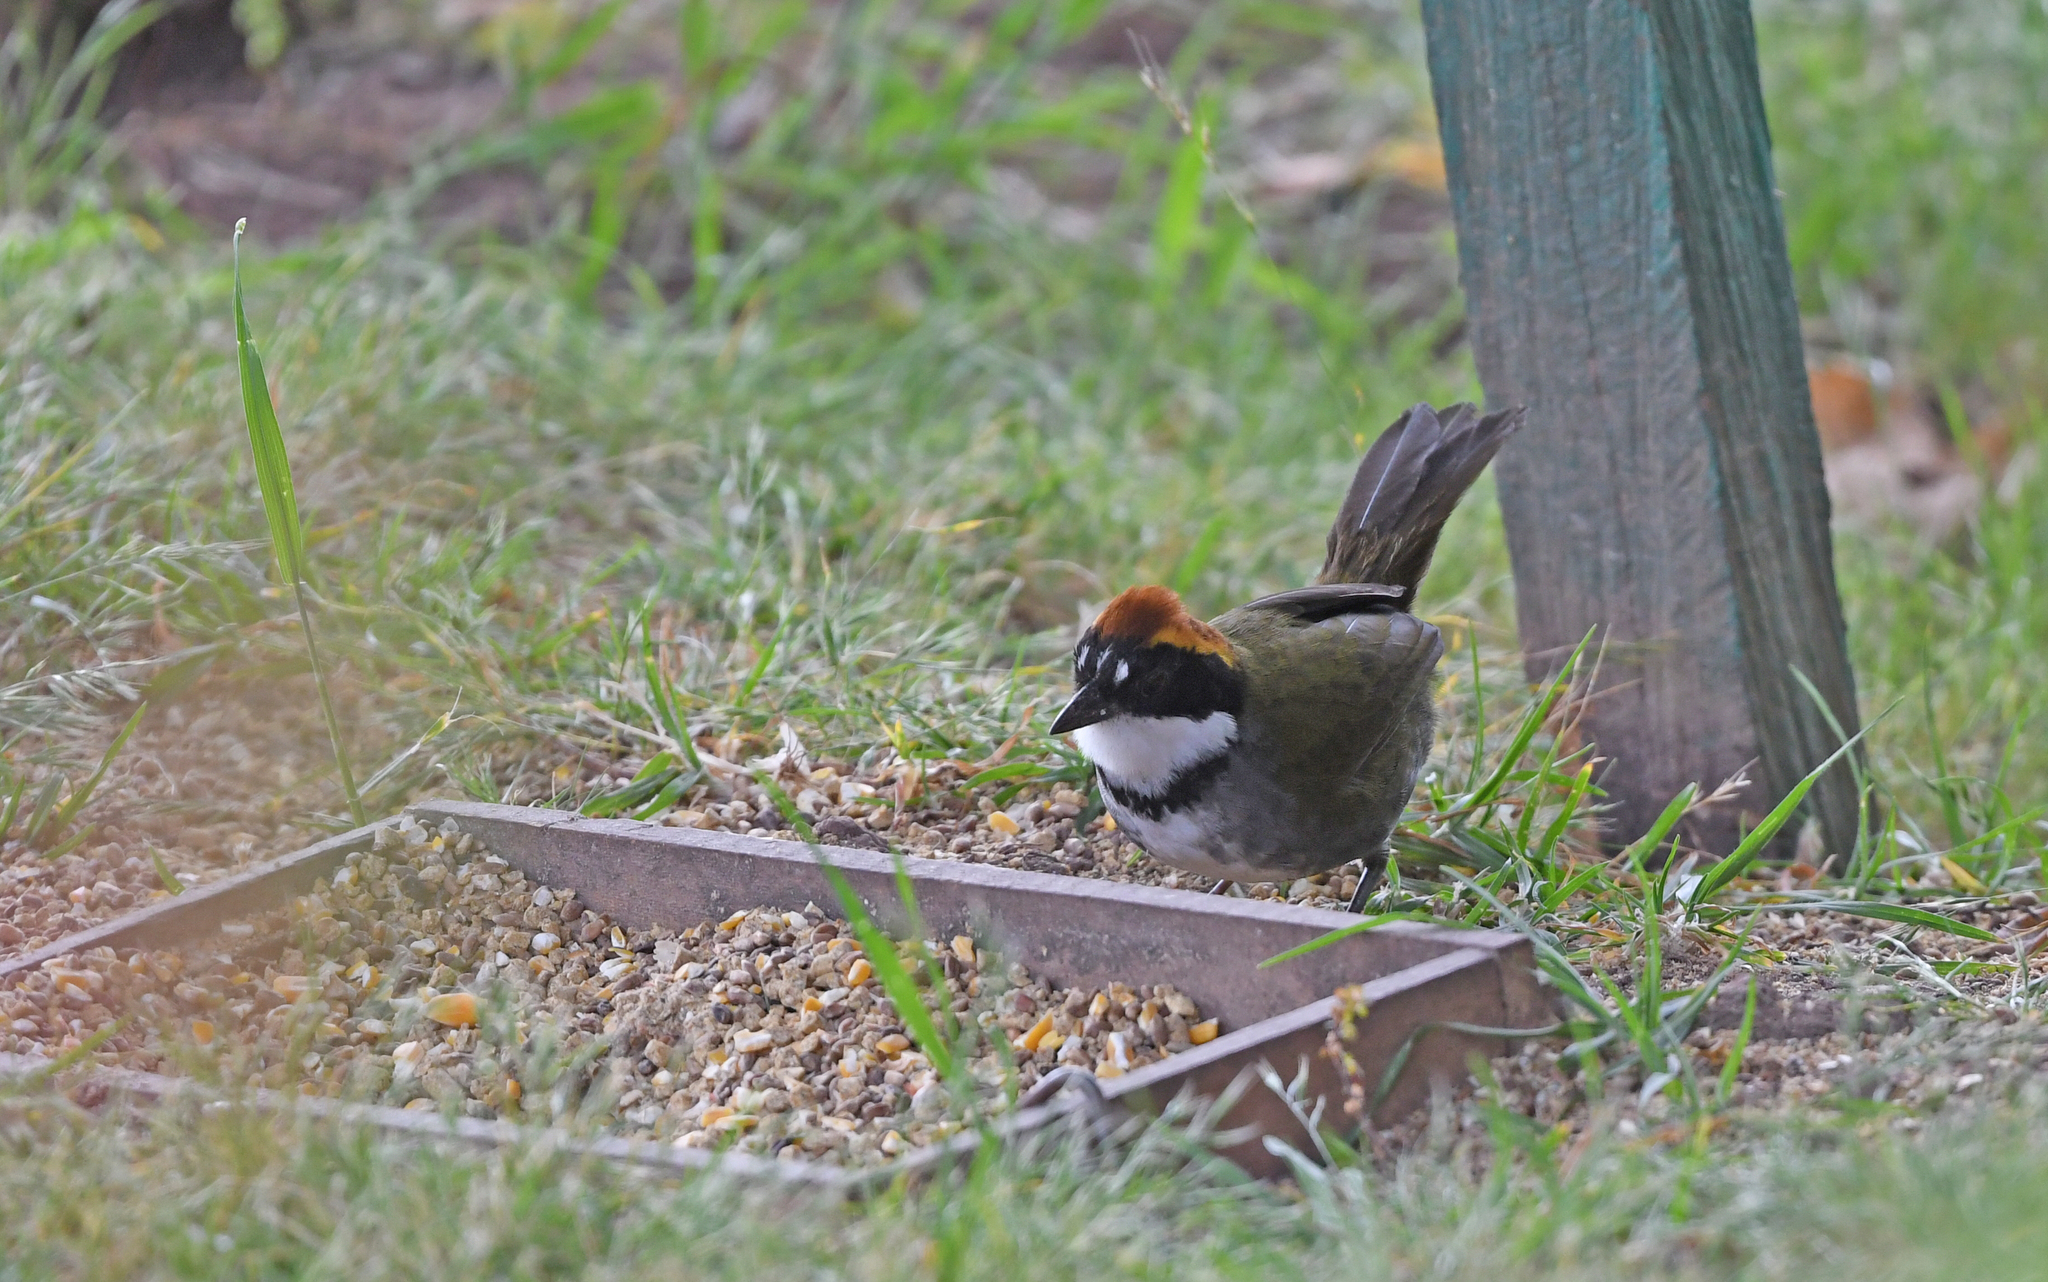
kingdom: Animalia
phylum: Chordata
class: Aves
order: Passeriformes
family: Passerellidae
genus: Arremon
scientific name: Arremon brunneinucha
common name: Chestnut-capped brushfinch
